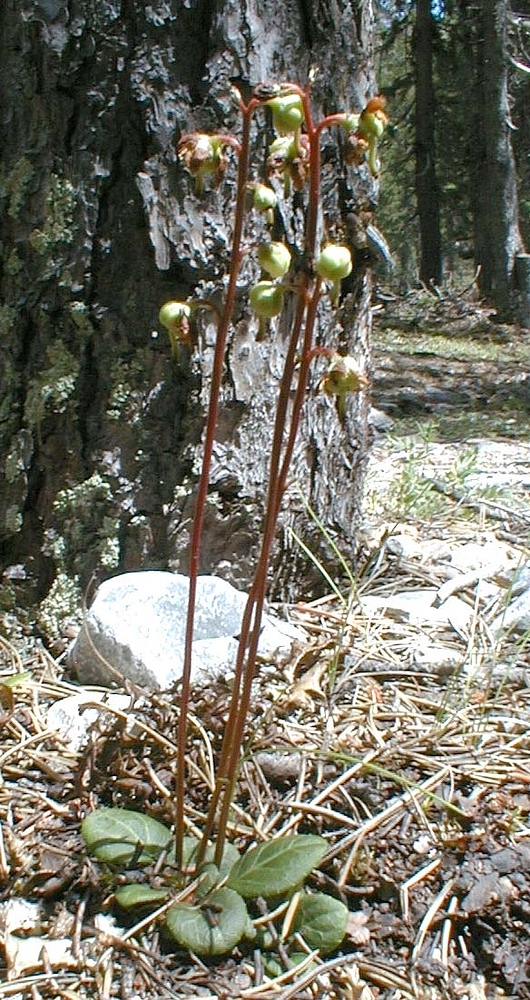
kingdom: Plantae
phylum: Tracheophyta
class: Magnoliopsida
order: Ericales
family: Ericaceae
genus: Pyrola
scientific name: Pyrola chlorantha
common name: Green wintergreen
